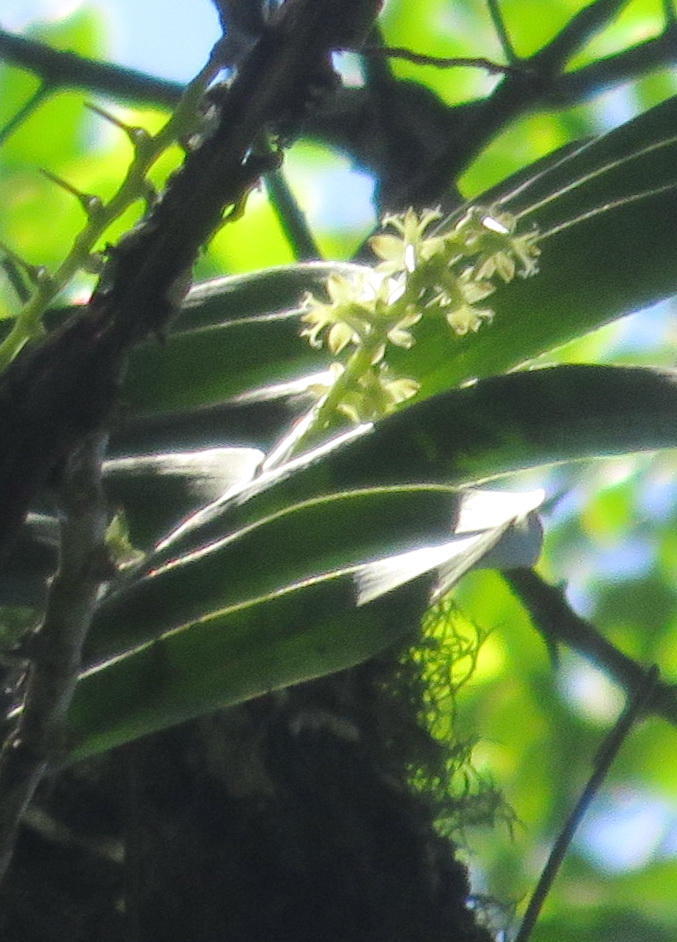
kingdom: Plantae
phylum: Tracheophyta
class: Liliopsida
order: Asparagales
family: Orchidaceae
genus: Tridactyle
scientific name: Tridactyle bicaudata
